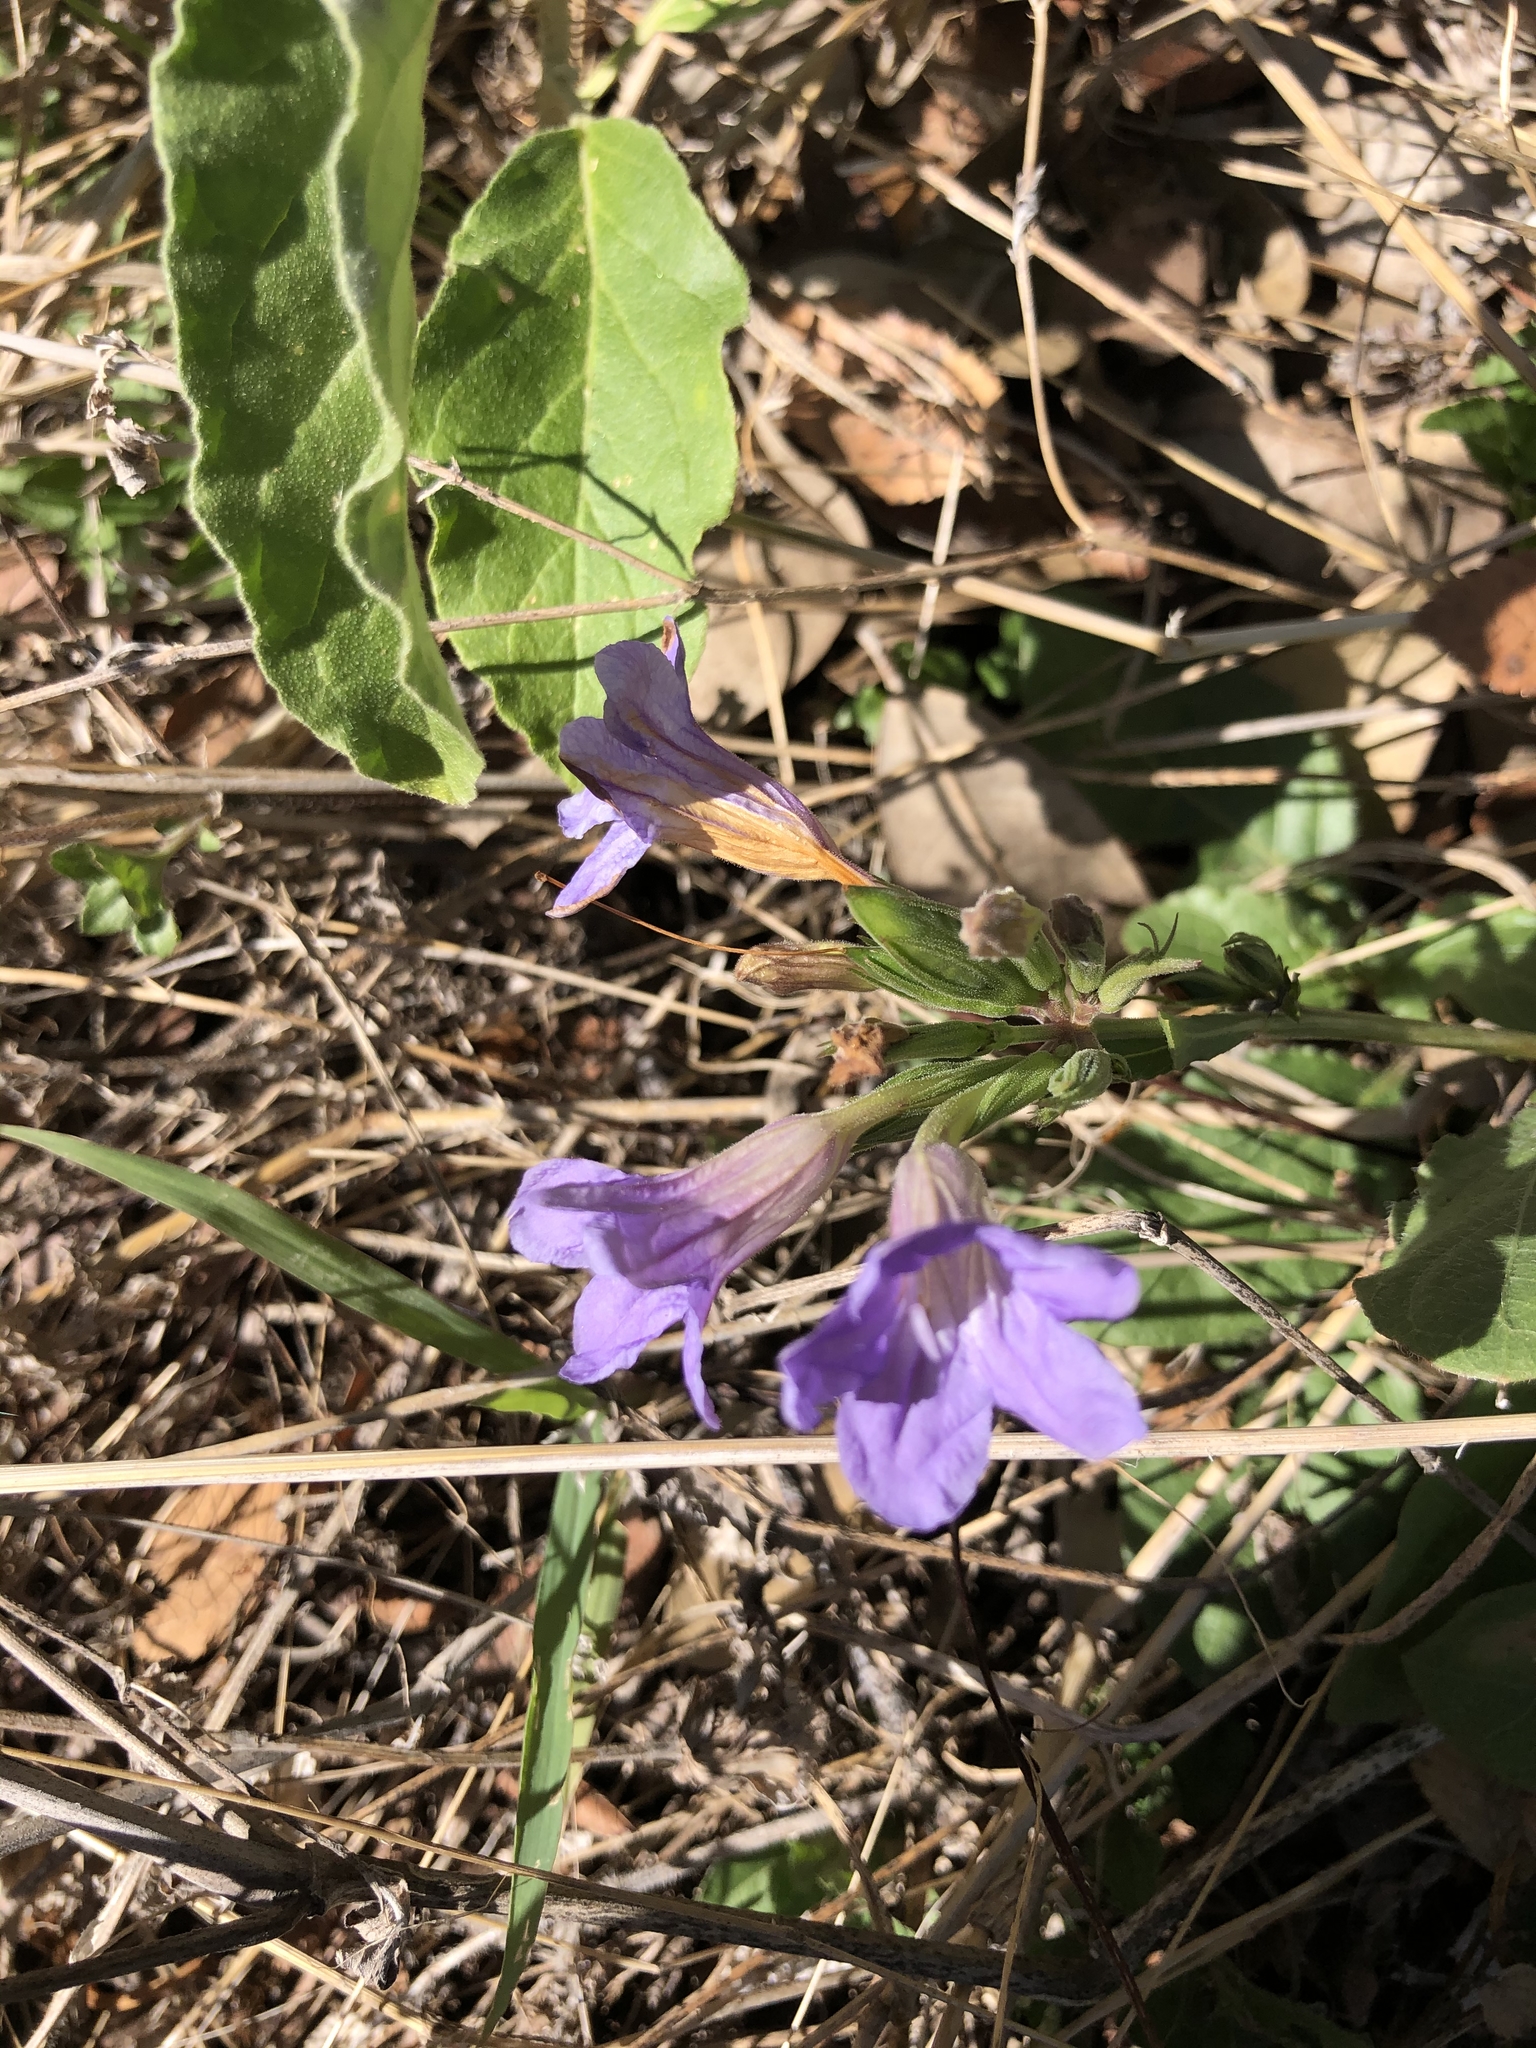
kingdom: Plantae
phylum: Tracheophyta
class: Magnoliopsida
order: Lamiales
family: Acanthaceae
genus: Ruellia
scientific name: Ruellia ciliatiflora
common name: Hairyflower wild petunia
